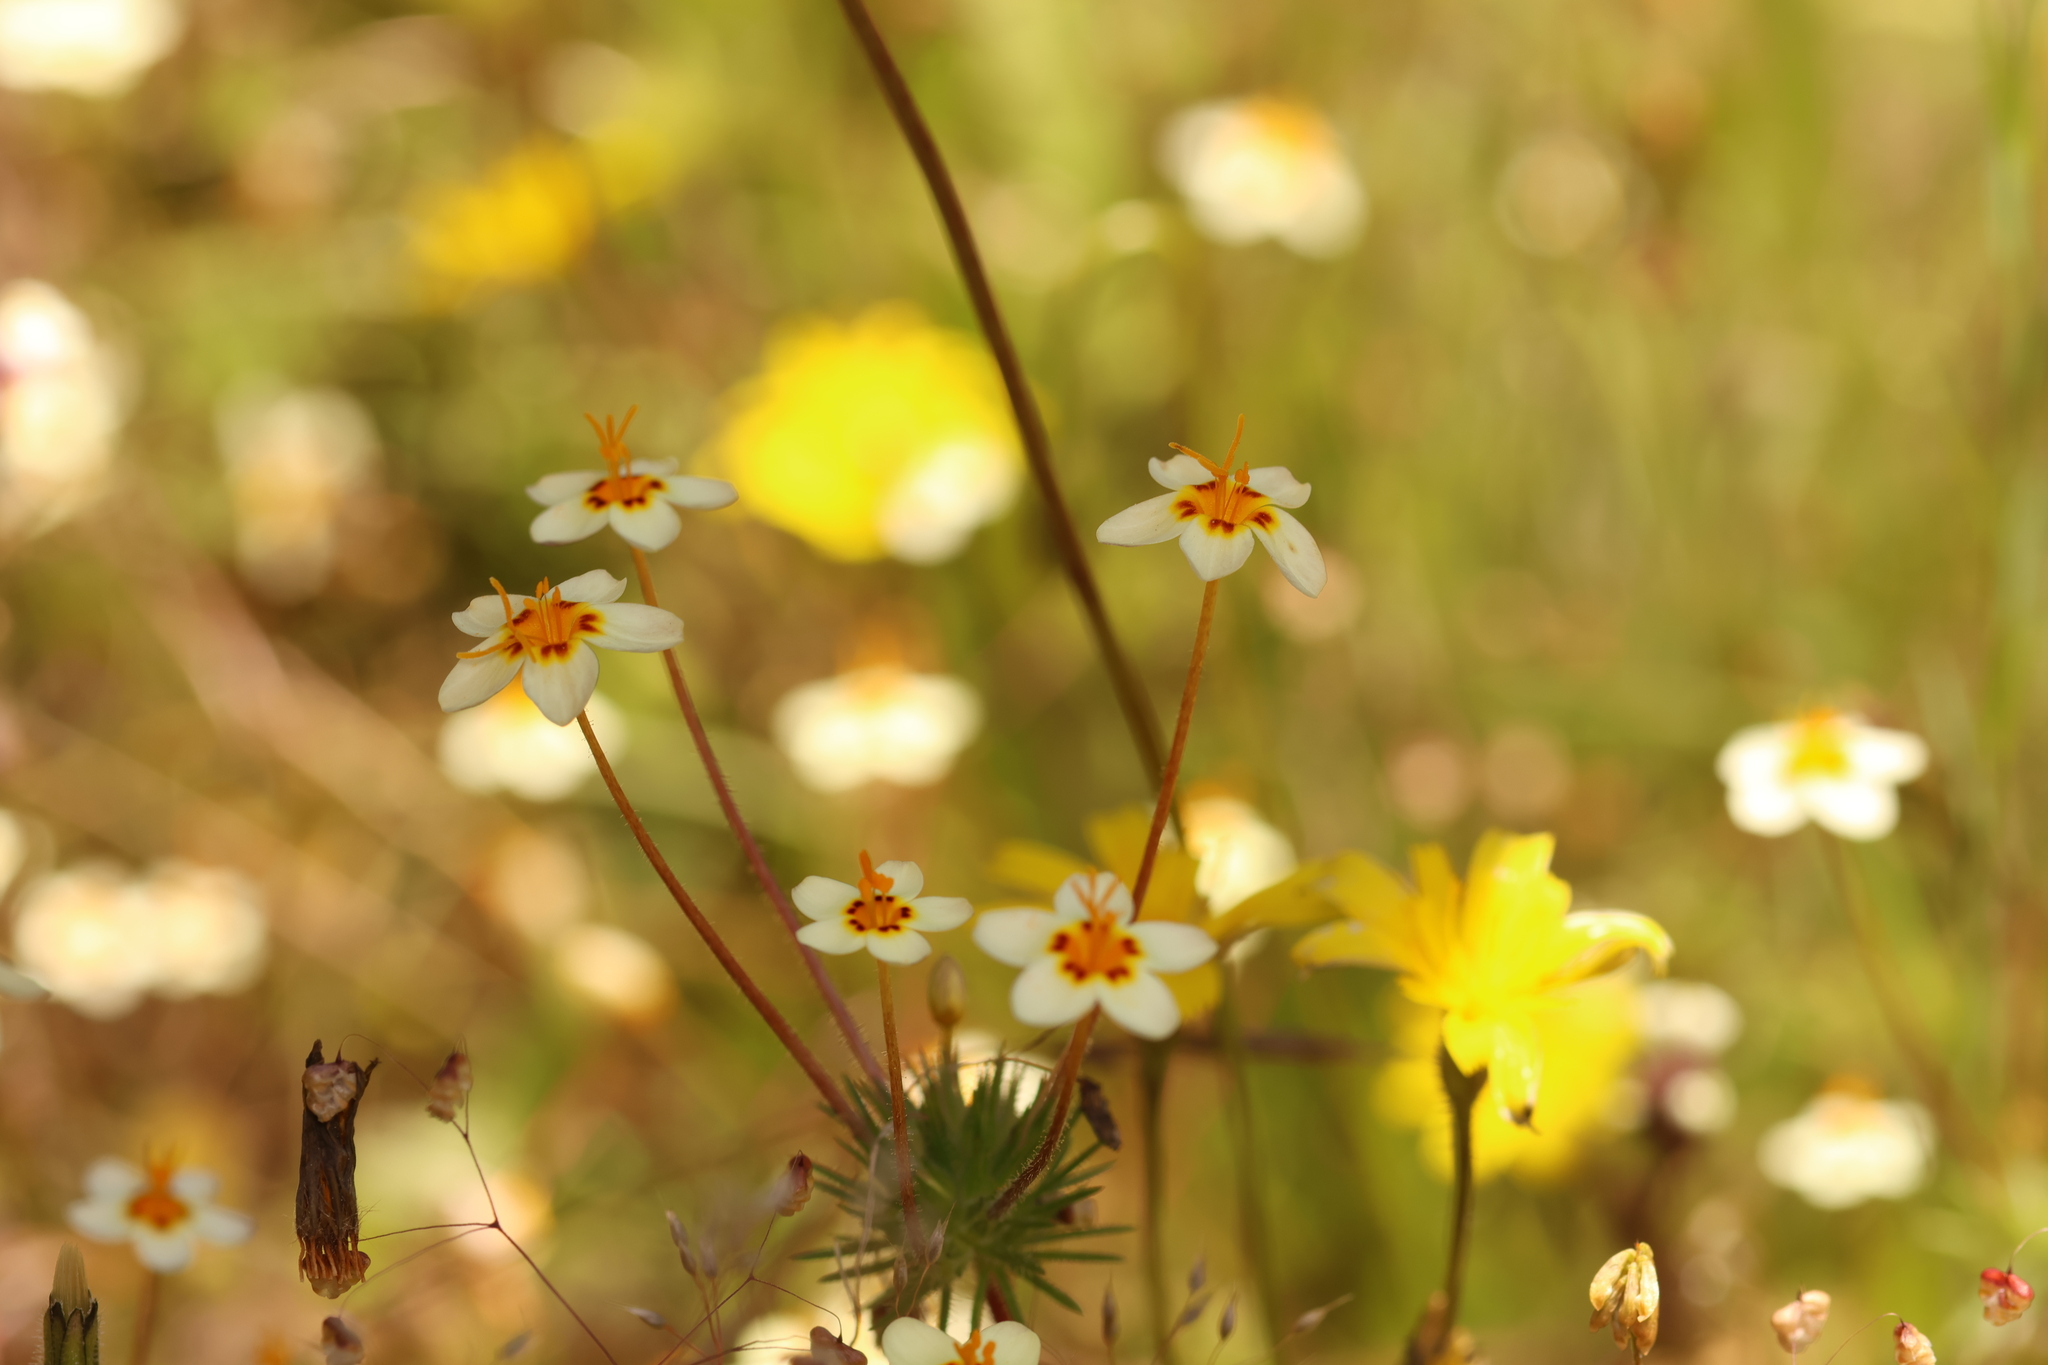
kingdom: Plantae
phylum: Tracheophyta
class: Magnoliopsida
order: Ericales
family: Polemoniaceae
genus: Leptosiphon
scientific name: Leptosiphon parviflorus
